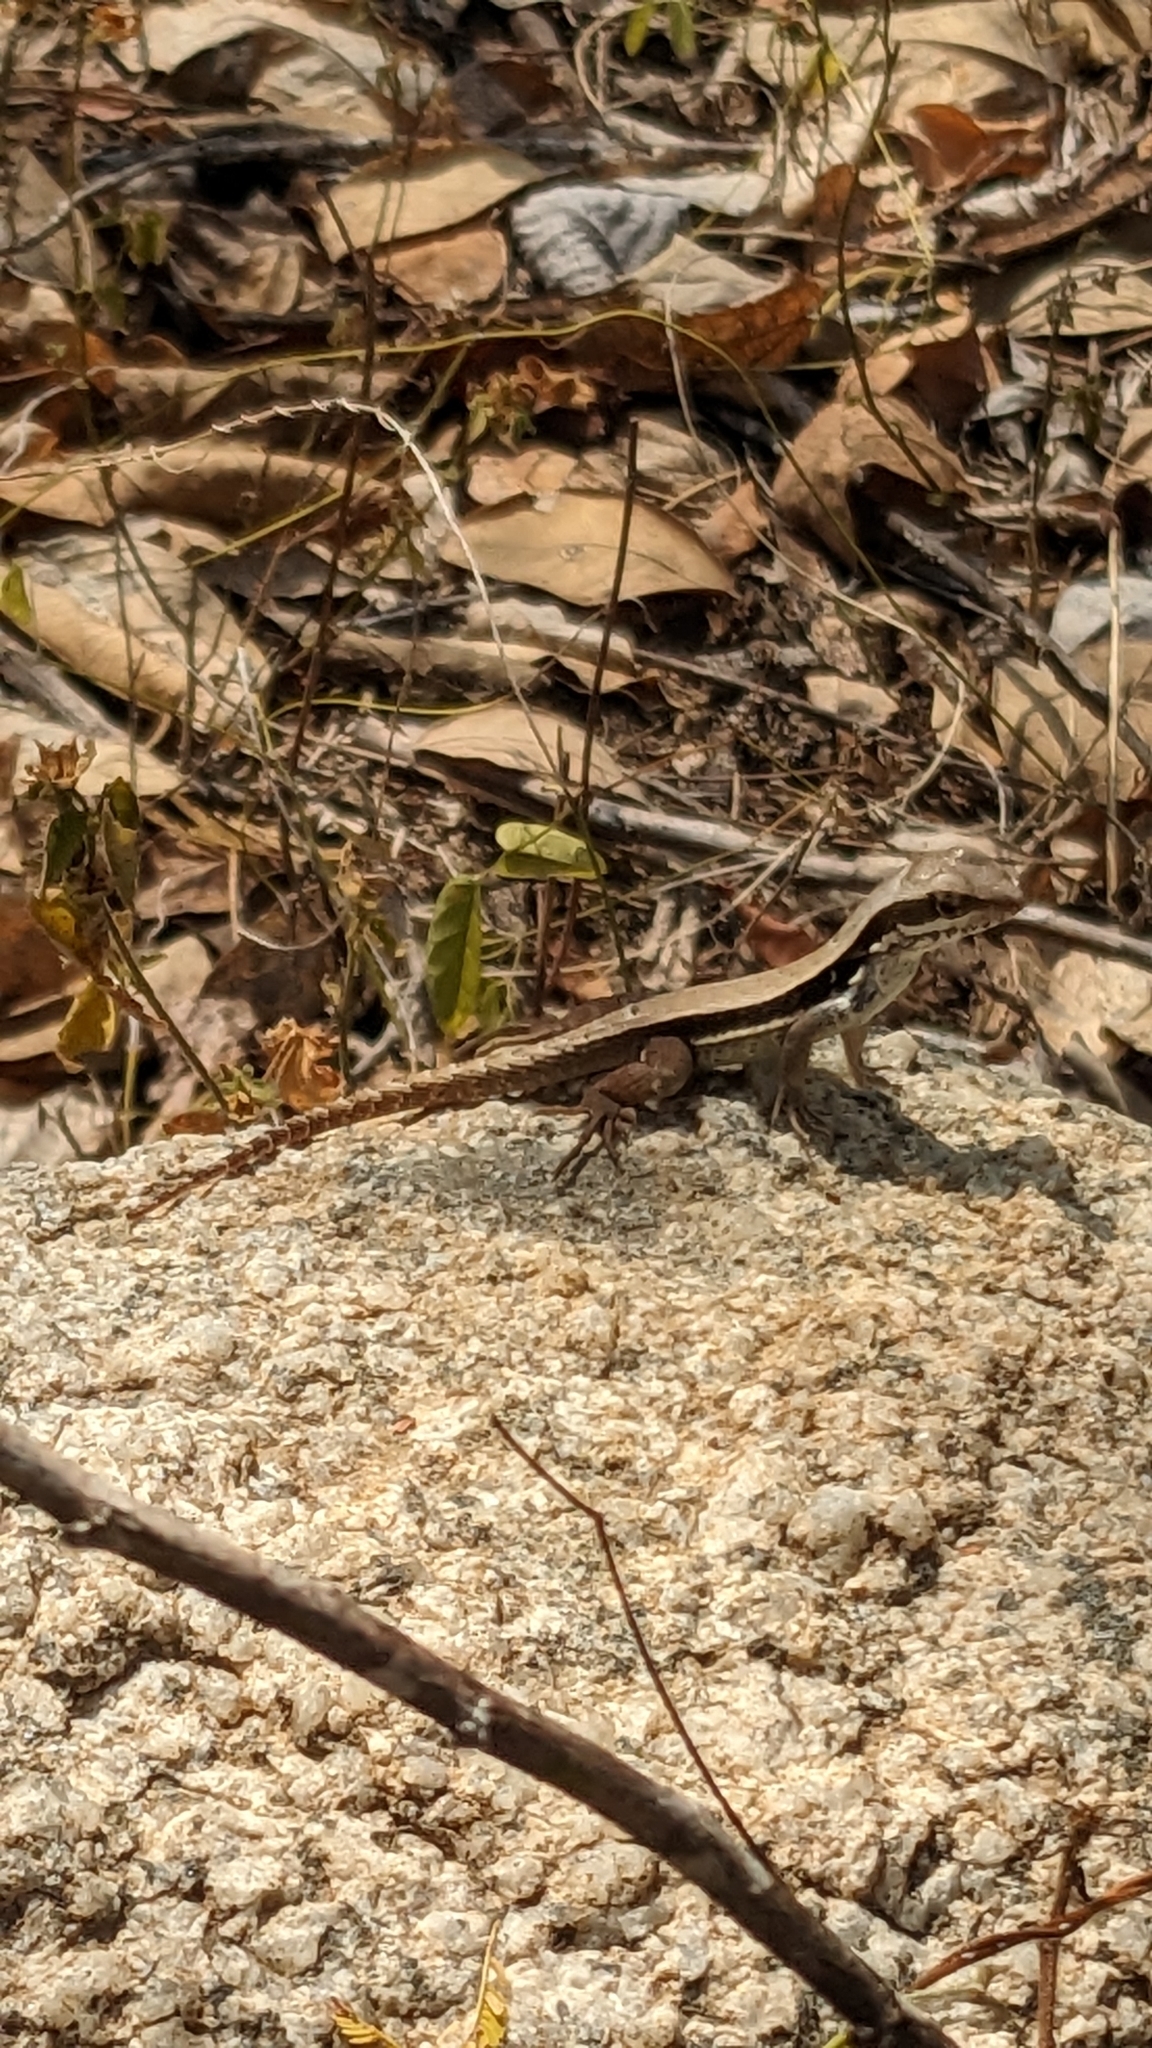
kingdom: Animalia
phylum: Chordata
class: Squamata
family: Leiocephalidae
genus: Leiocephalus
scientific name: Leiocephalus macropus
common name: Monte verde curlytail lizard
